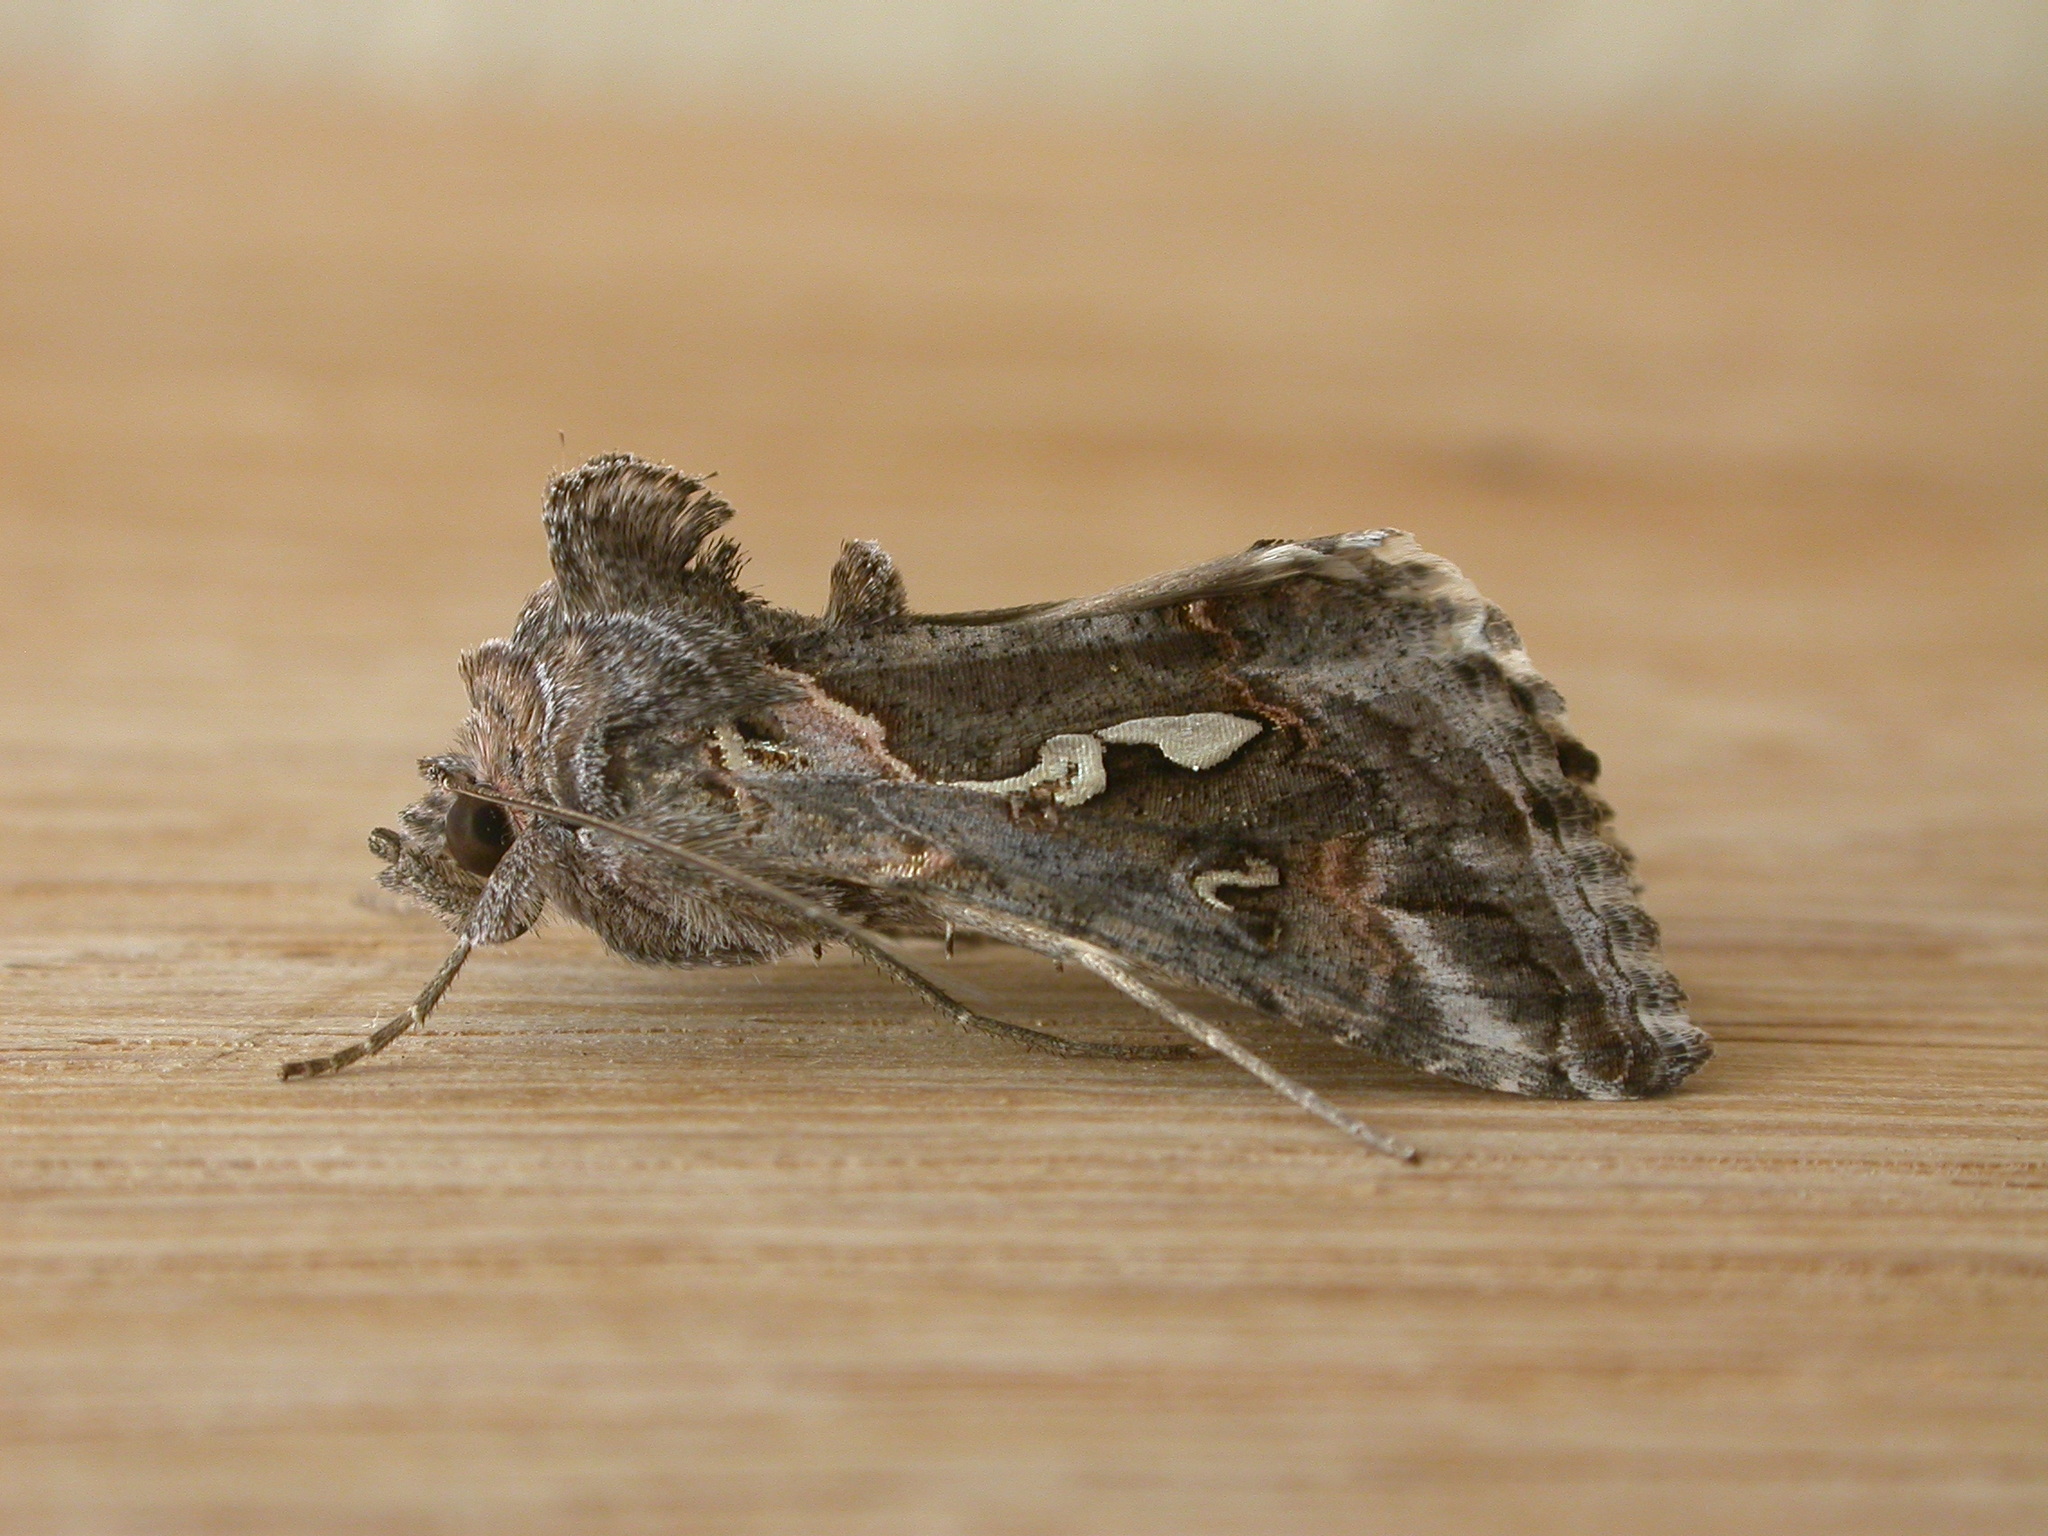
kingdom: Animalia
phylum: Arthropoda
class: Insecta
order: Lepidoptera
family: Noctuidae
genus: Chrysodeixis
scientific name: Chrysodeixis argentifera
